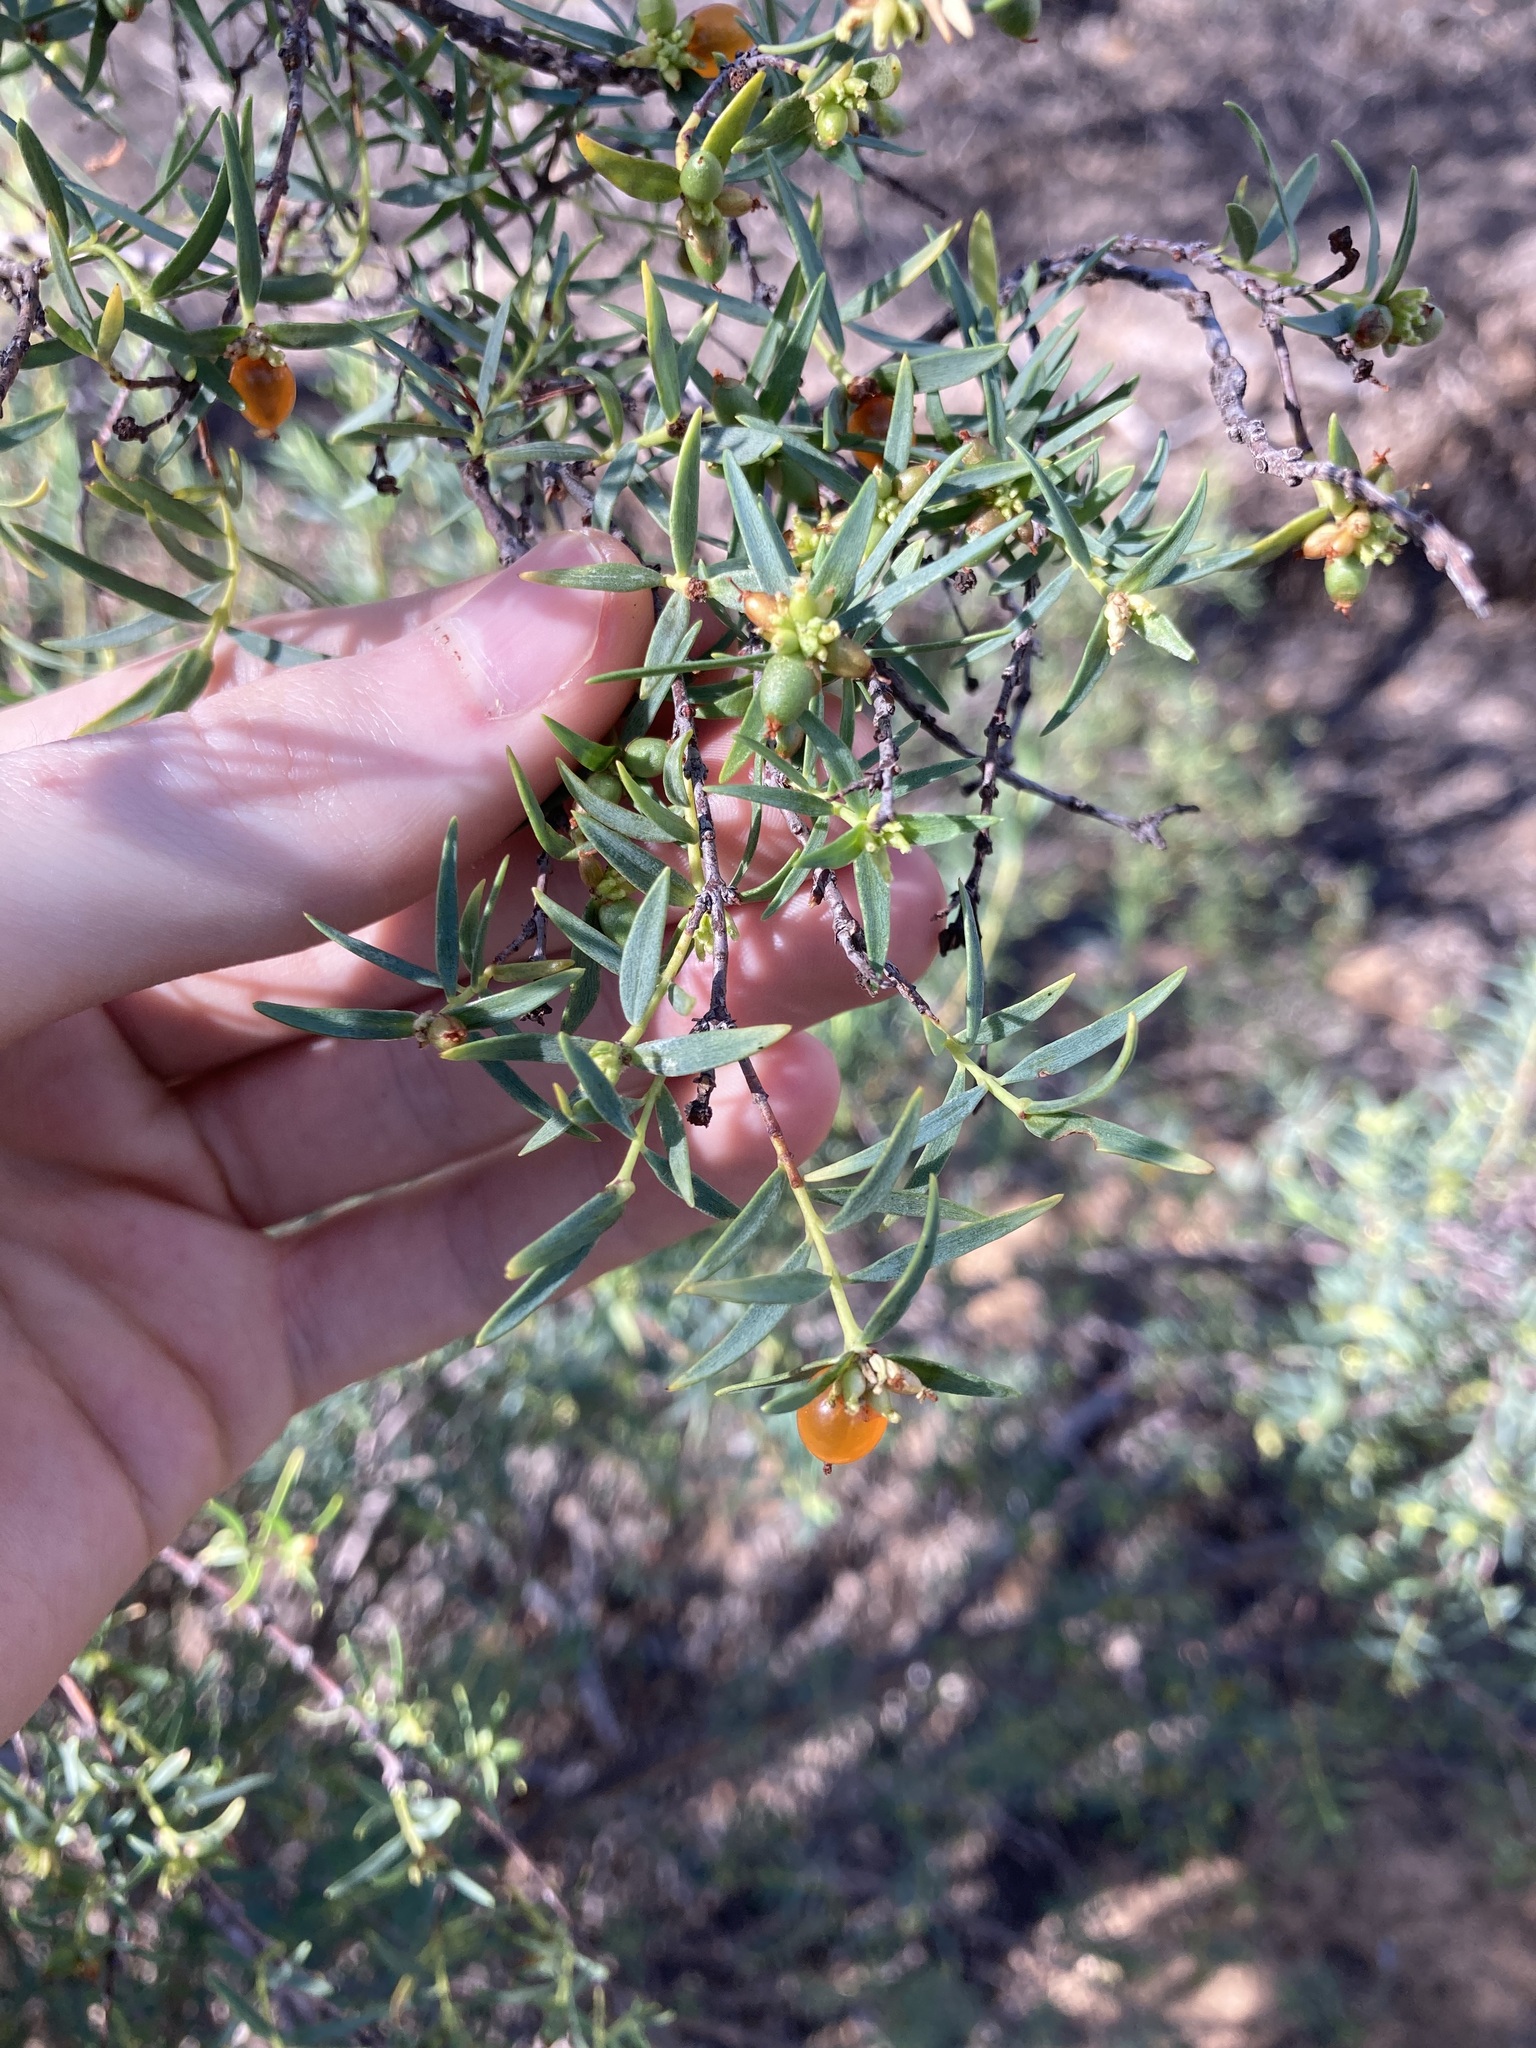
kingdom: Plantae
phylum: Tracheophyta
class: Magnoliopsida
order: Malvales
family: Thymelaeaceae
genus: Pimelea
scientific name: Pimelea microcephala
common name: Mallee riceflower
